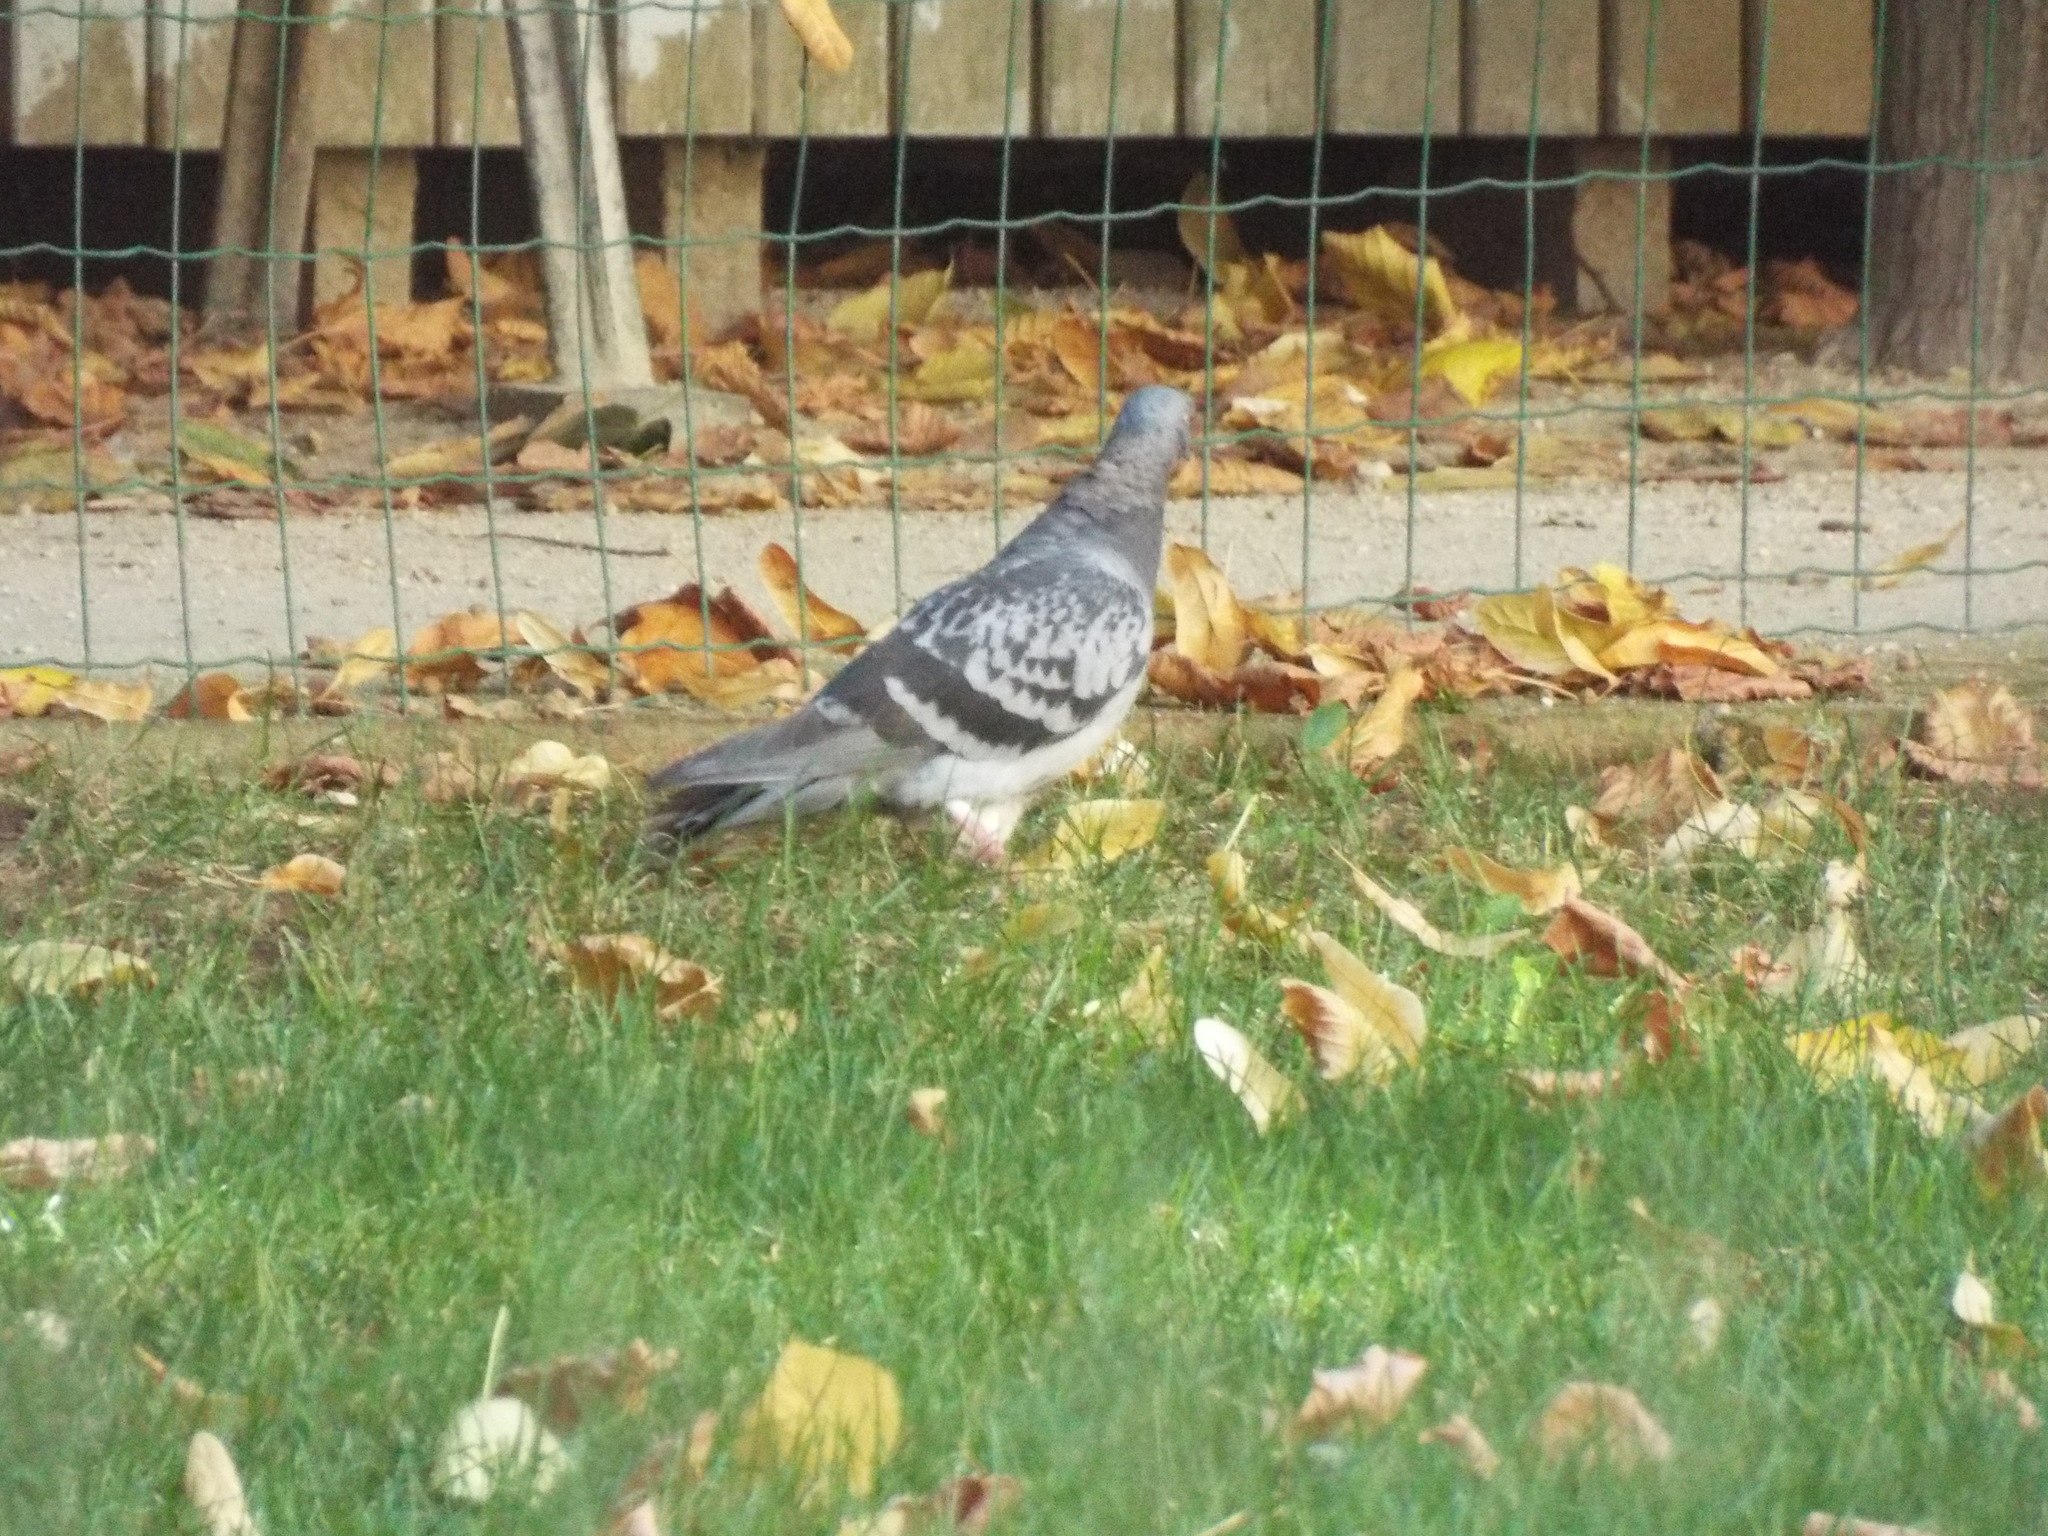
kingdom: Animalia
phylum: Chordata
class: Aves
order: Columbiformes
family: Columbidae
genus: Columba
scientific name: Columba livia
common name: Rock pigeon
